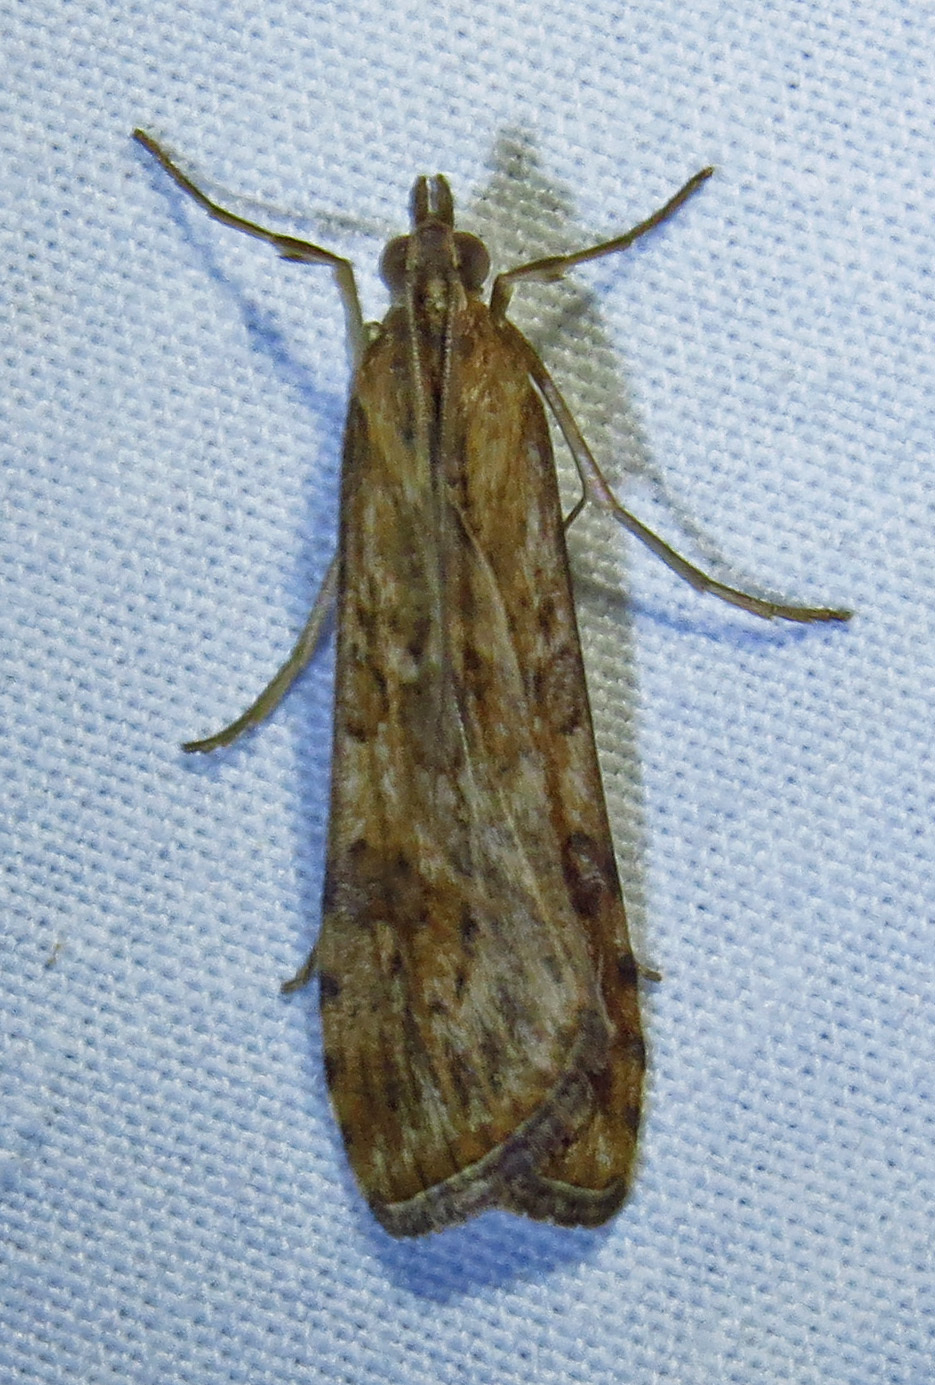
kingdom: Animalia
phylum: Arthropoda
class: Insecta
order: Lepidoptera
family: Crambidae
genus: Nomophila
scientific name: Nomophila nearctica
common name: American rush veneer
